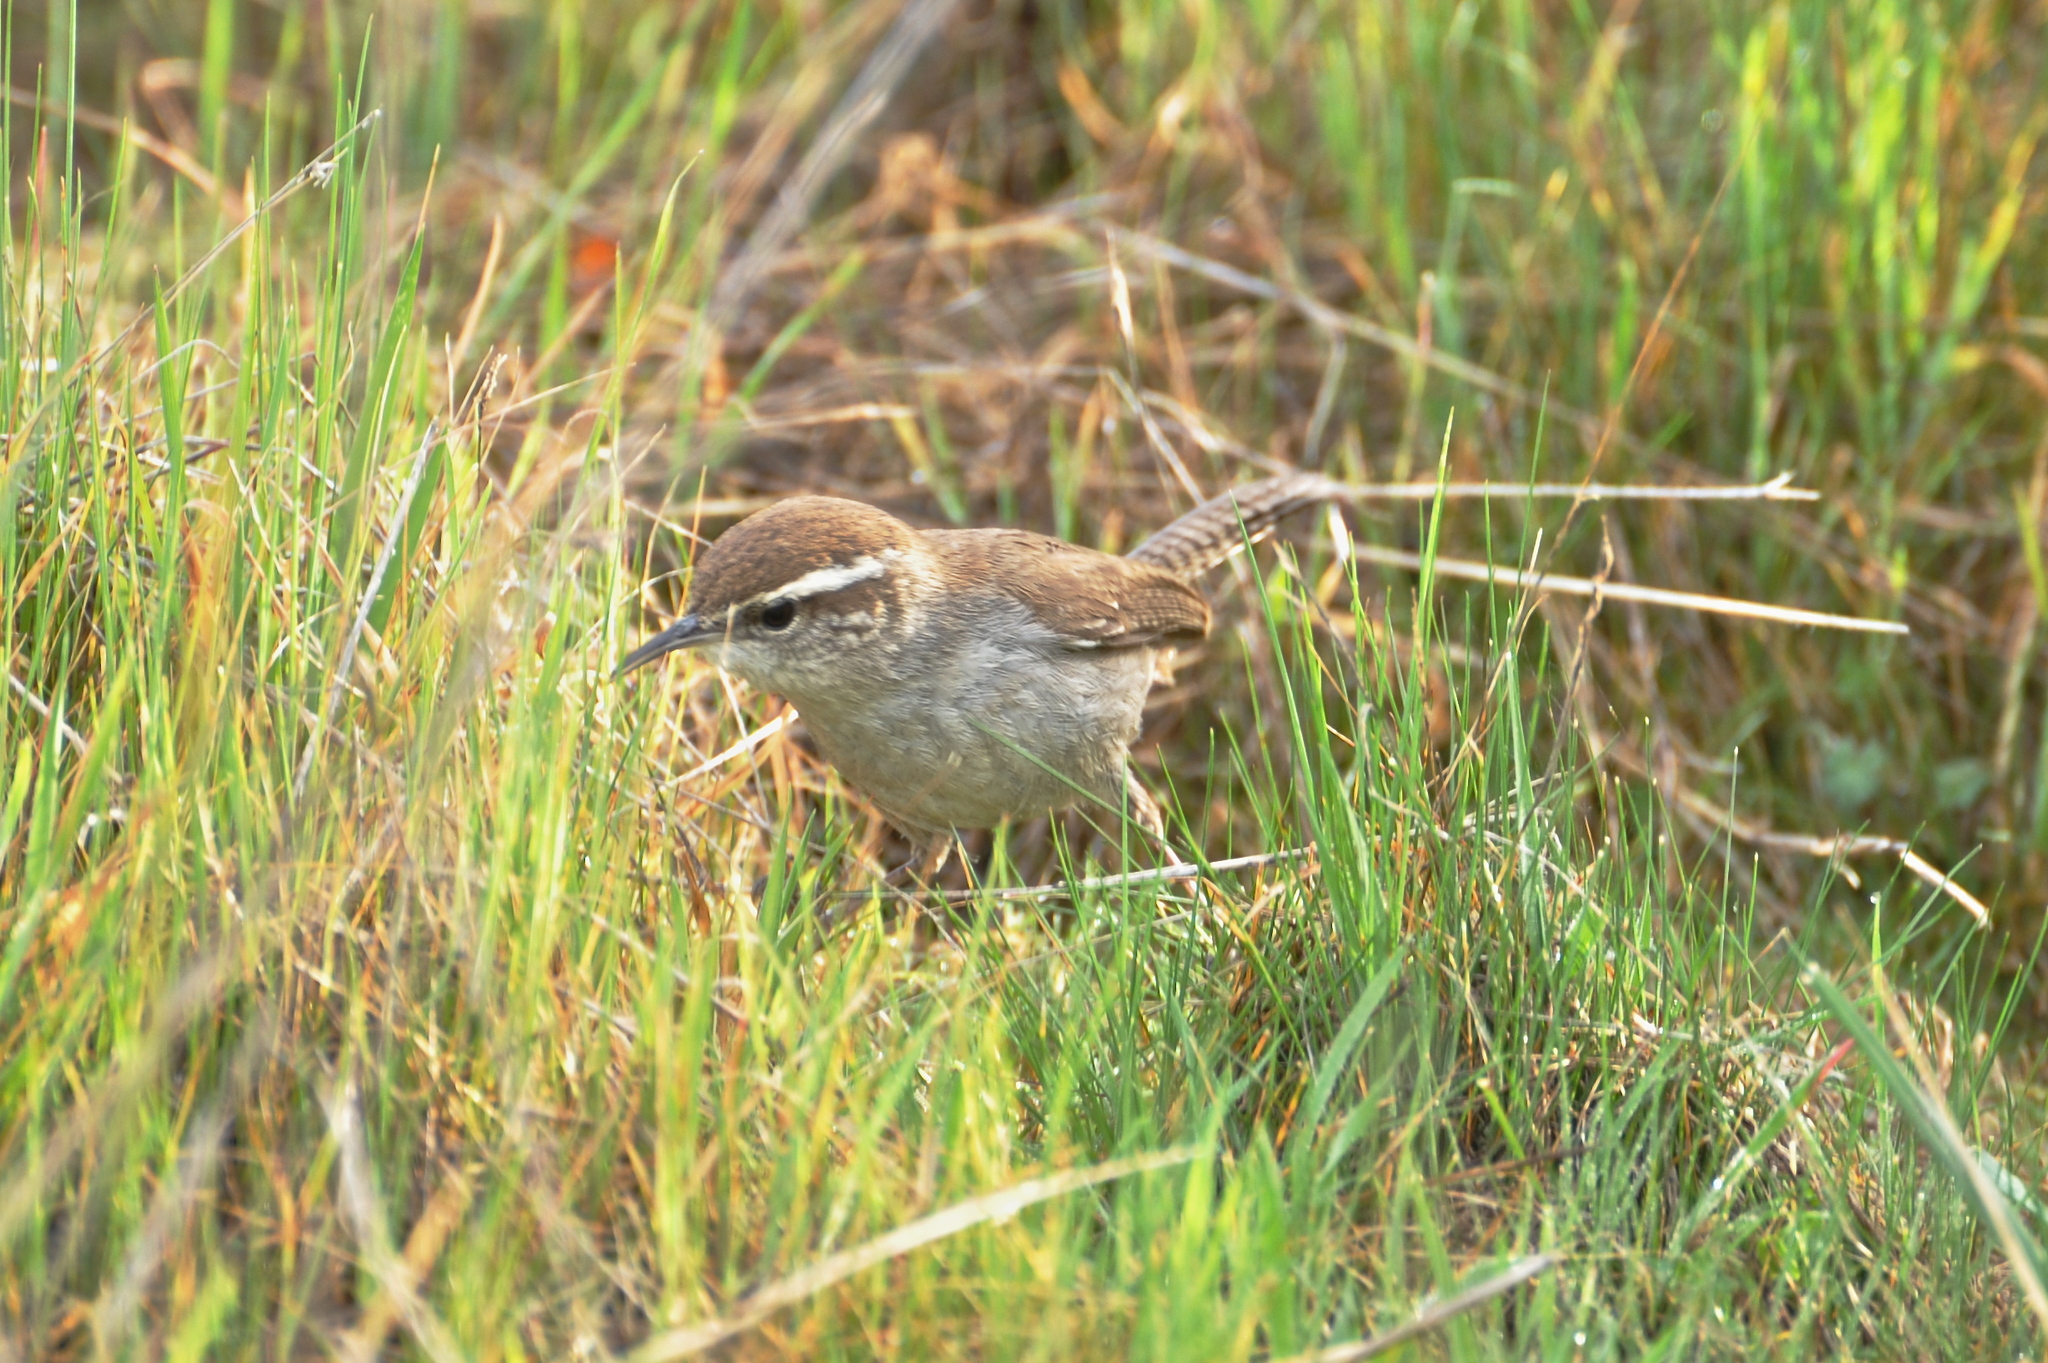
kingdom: Animalia
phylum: Chordata
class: Aves
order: Passeriformes
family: Troglodytidae
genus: Thryomanes
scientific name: Thryomanes bewickii
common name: Bewick's wren
